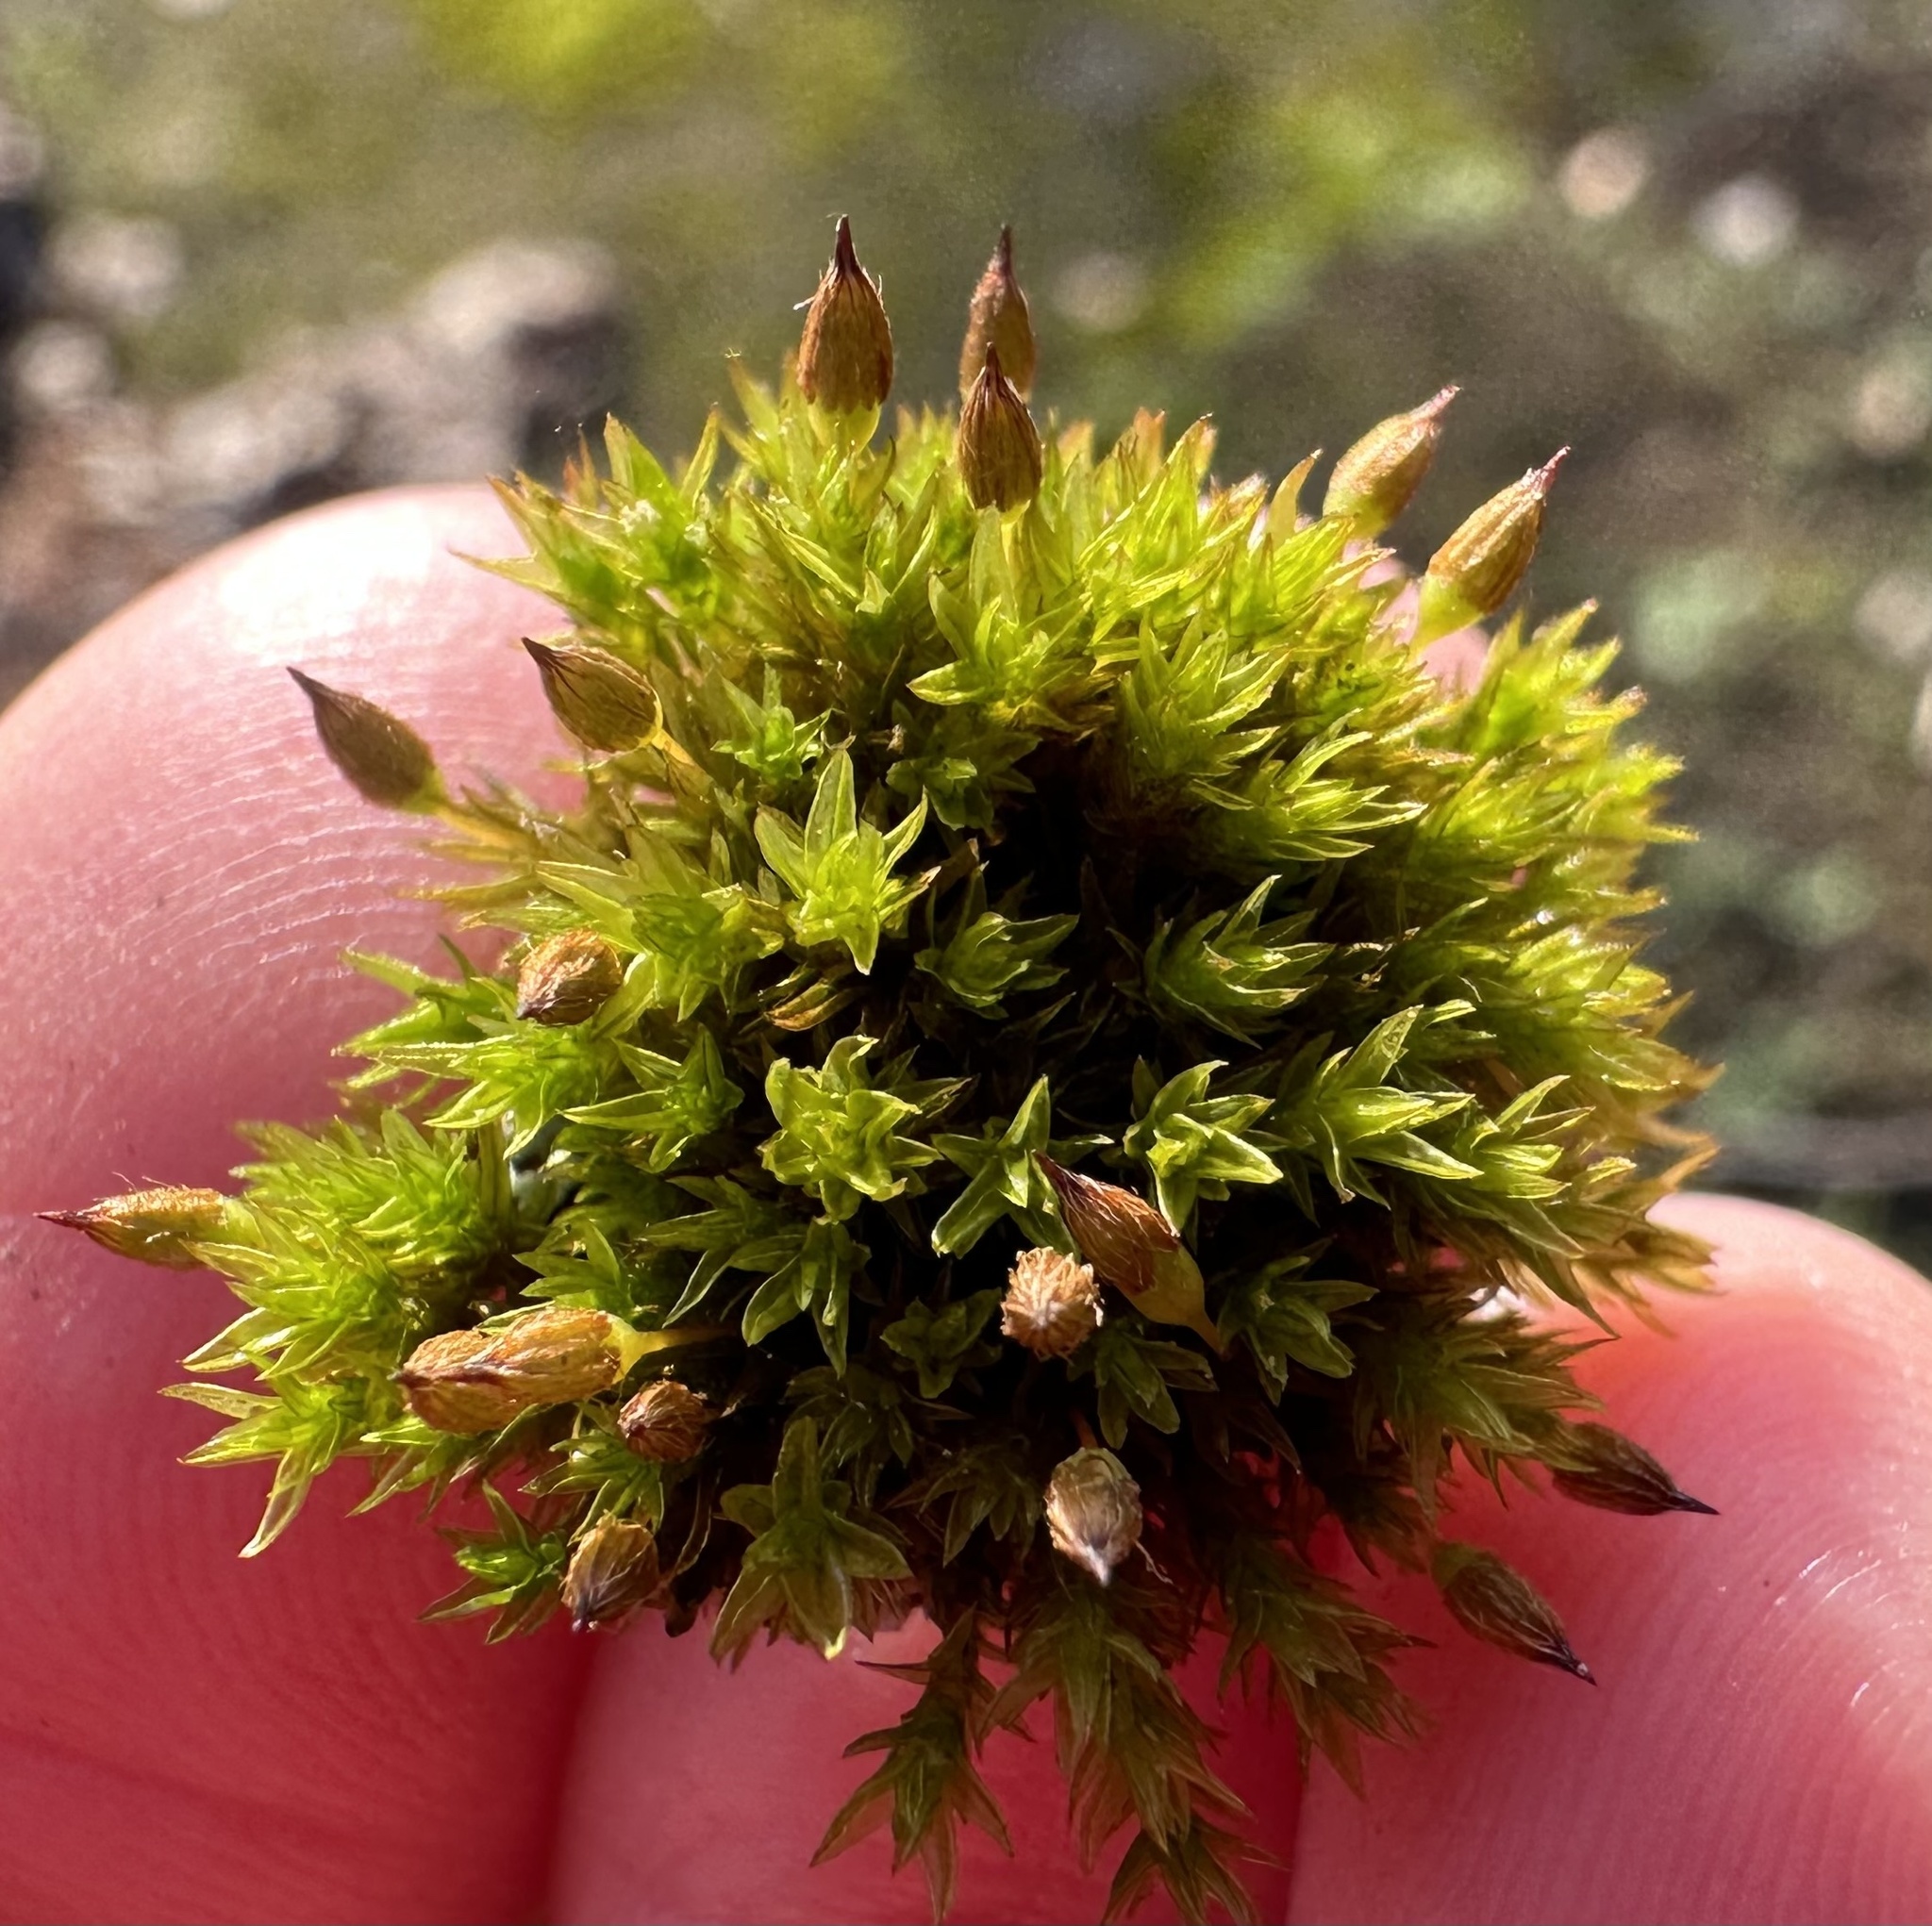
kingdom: Plantae
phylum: Bryophyta
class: Bryopsida
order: Orthotrichales
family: Orthotrichaceae
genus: Orthotrichum
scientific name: Orthotrichum anomalum
